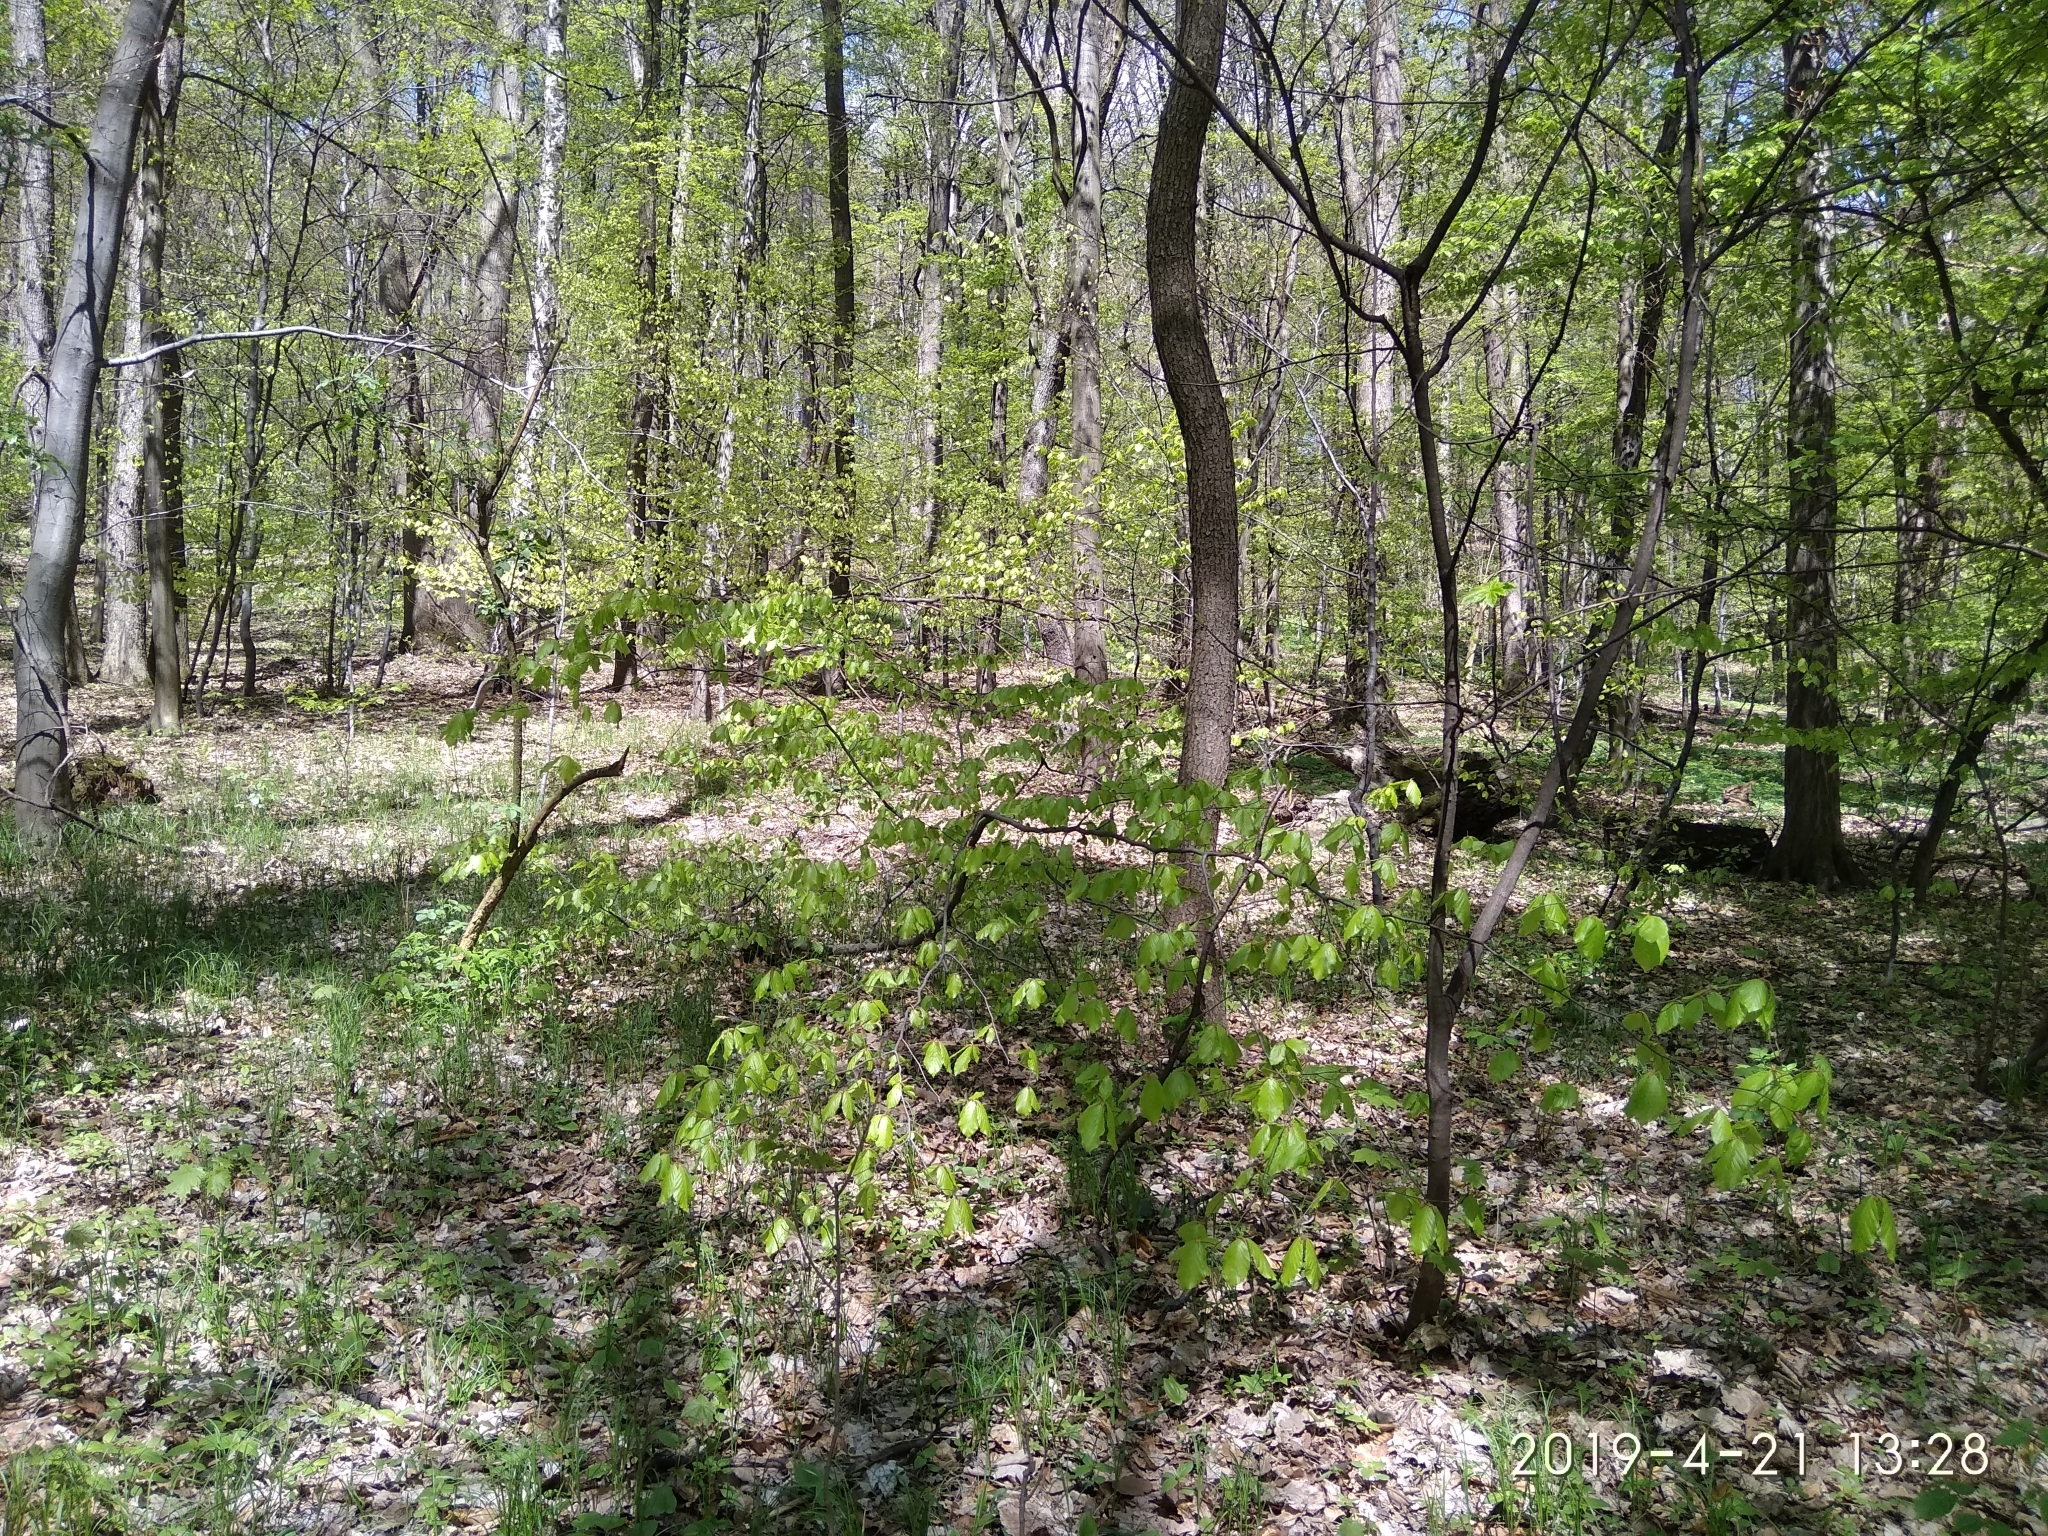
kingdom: Plantae
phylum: Tracheophyta
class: Magnoliopsida
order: Fagales
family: Fagaceae
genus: Fagus
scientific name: Fagus sylvatica
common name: Beech
